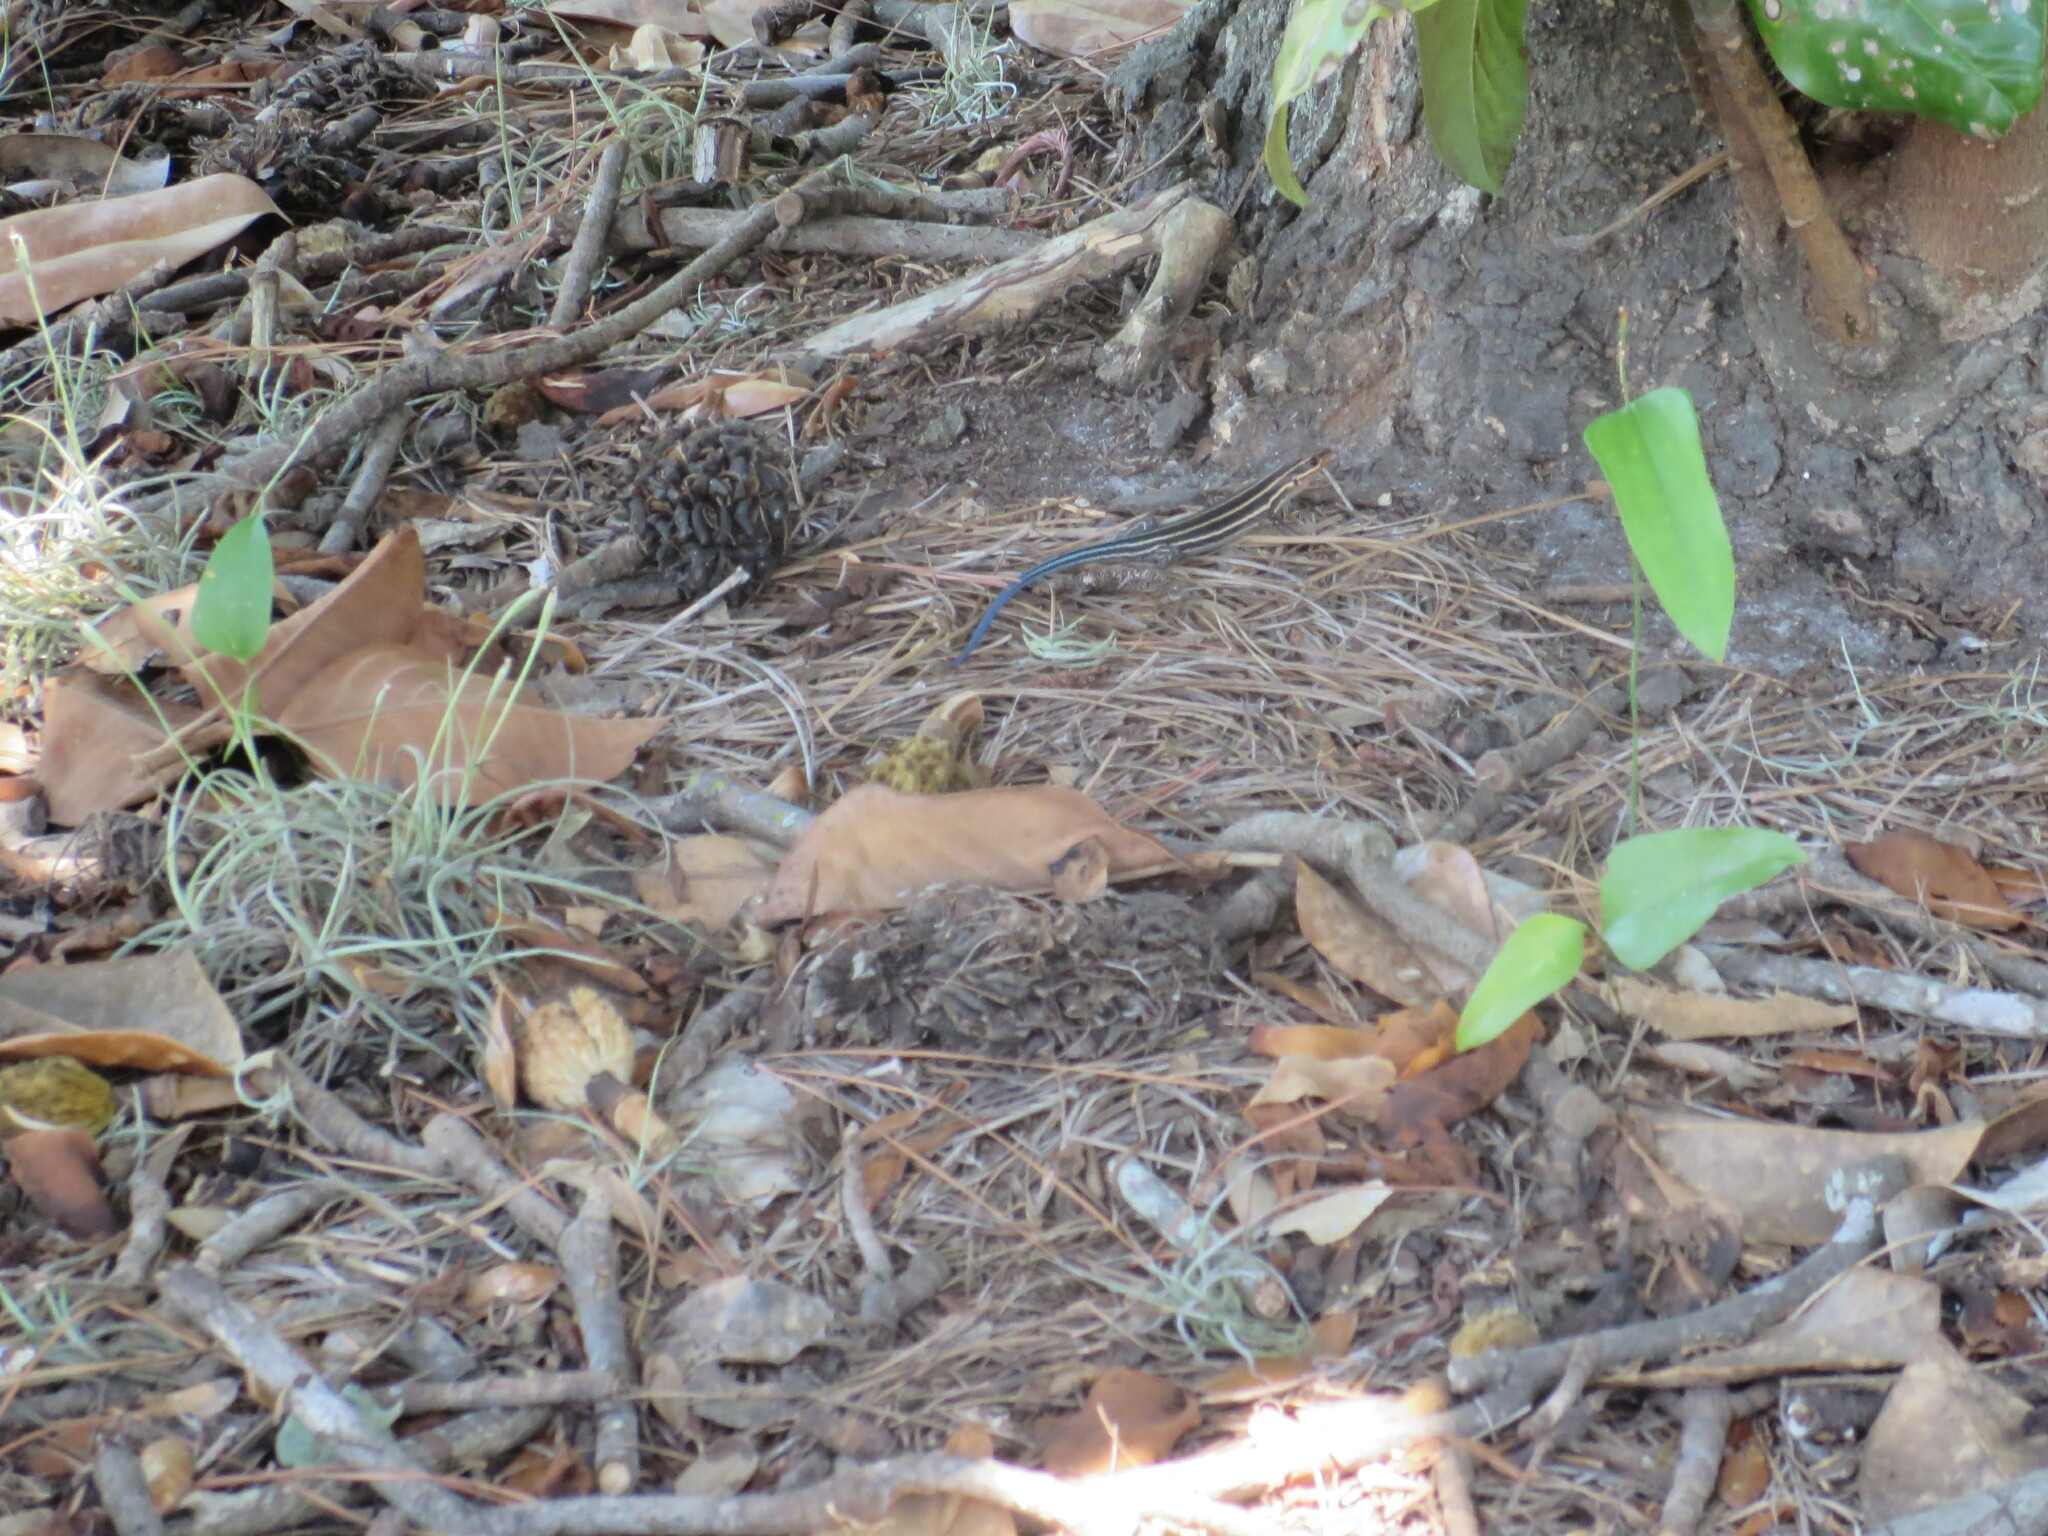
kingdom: Animalia
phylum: Chordata
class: Squamata
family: Scincidae
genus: Plestiodon
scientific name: Plestiodon laticeps
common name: Broadhead skink
